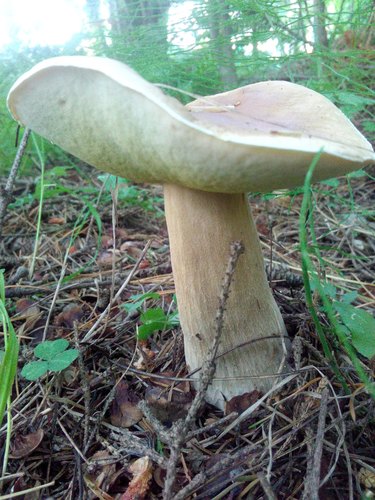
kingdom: Fungi
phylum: Basidiomycota
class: Agaricomycetes
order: Boletales
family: Boletaceae
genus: Boletus
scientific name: Boletus edulis
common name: Cep
